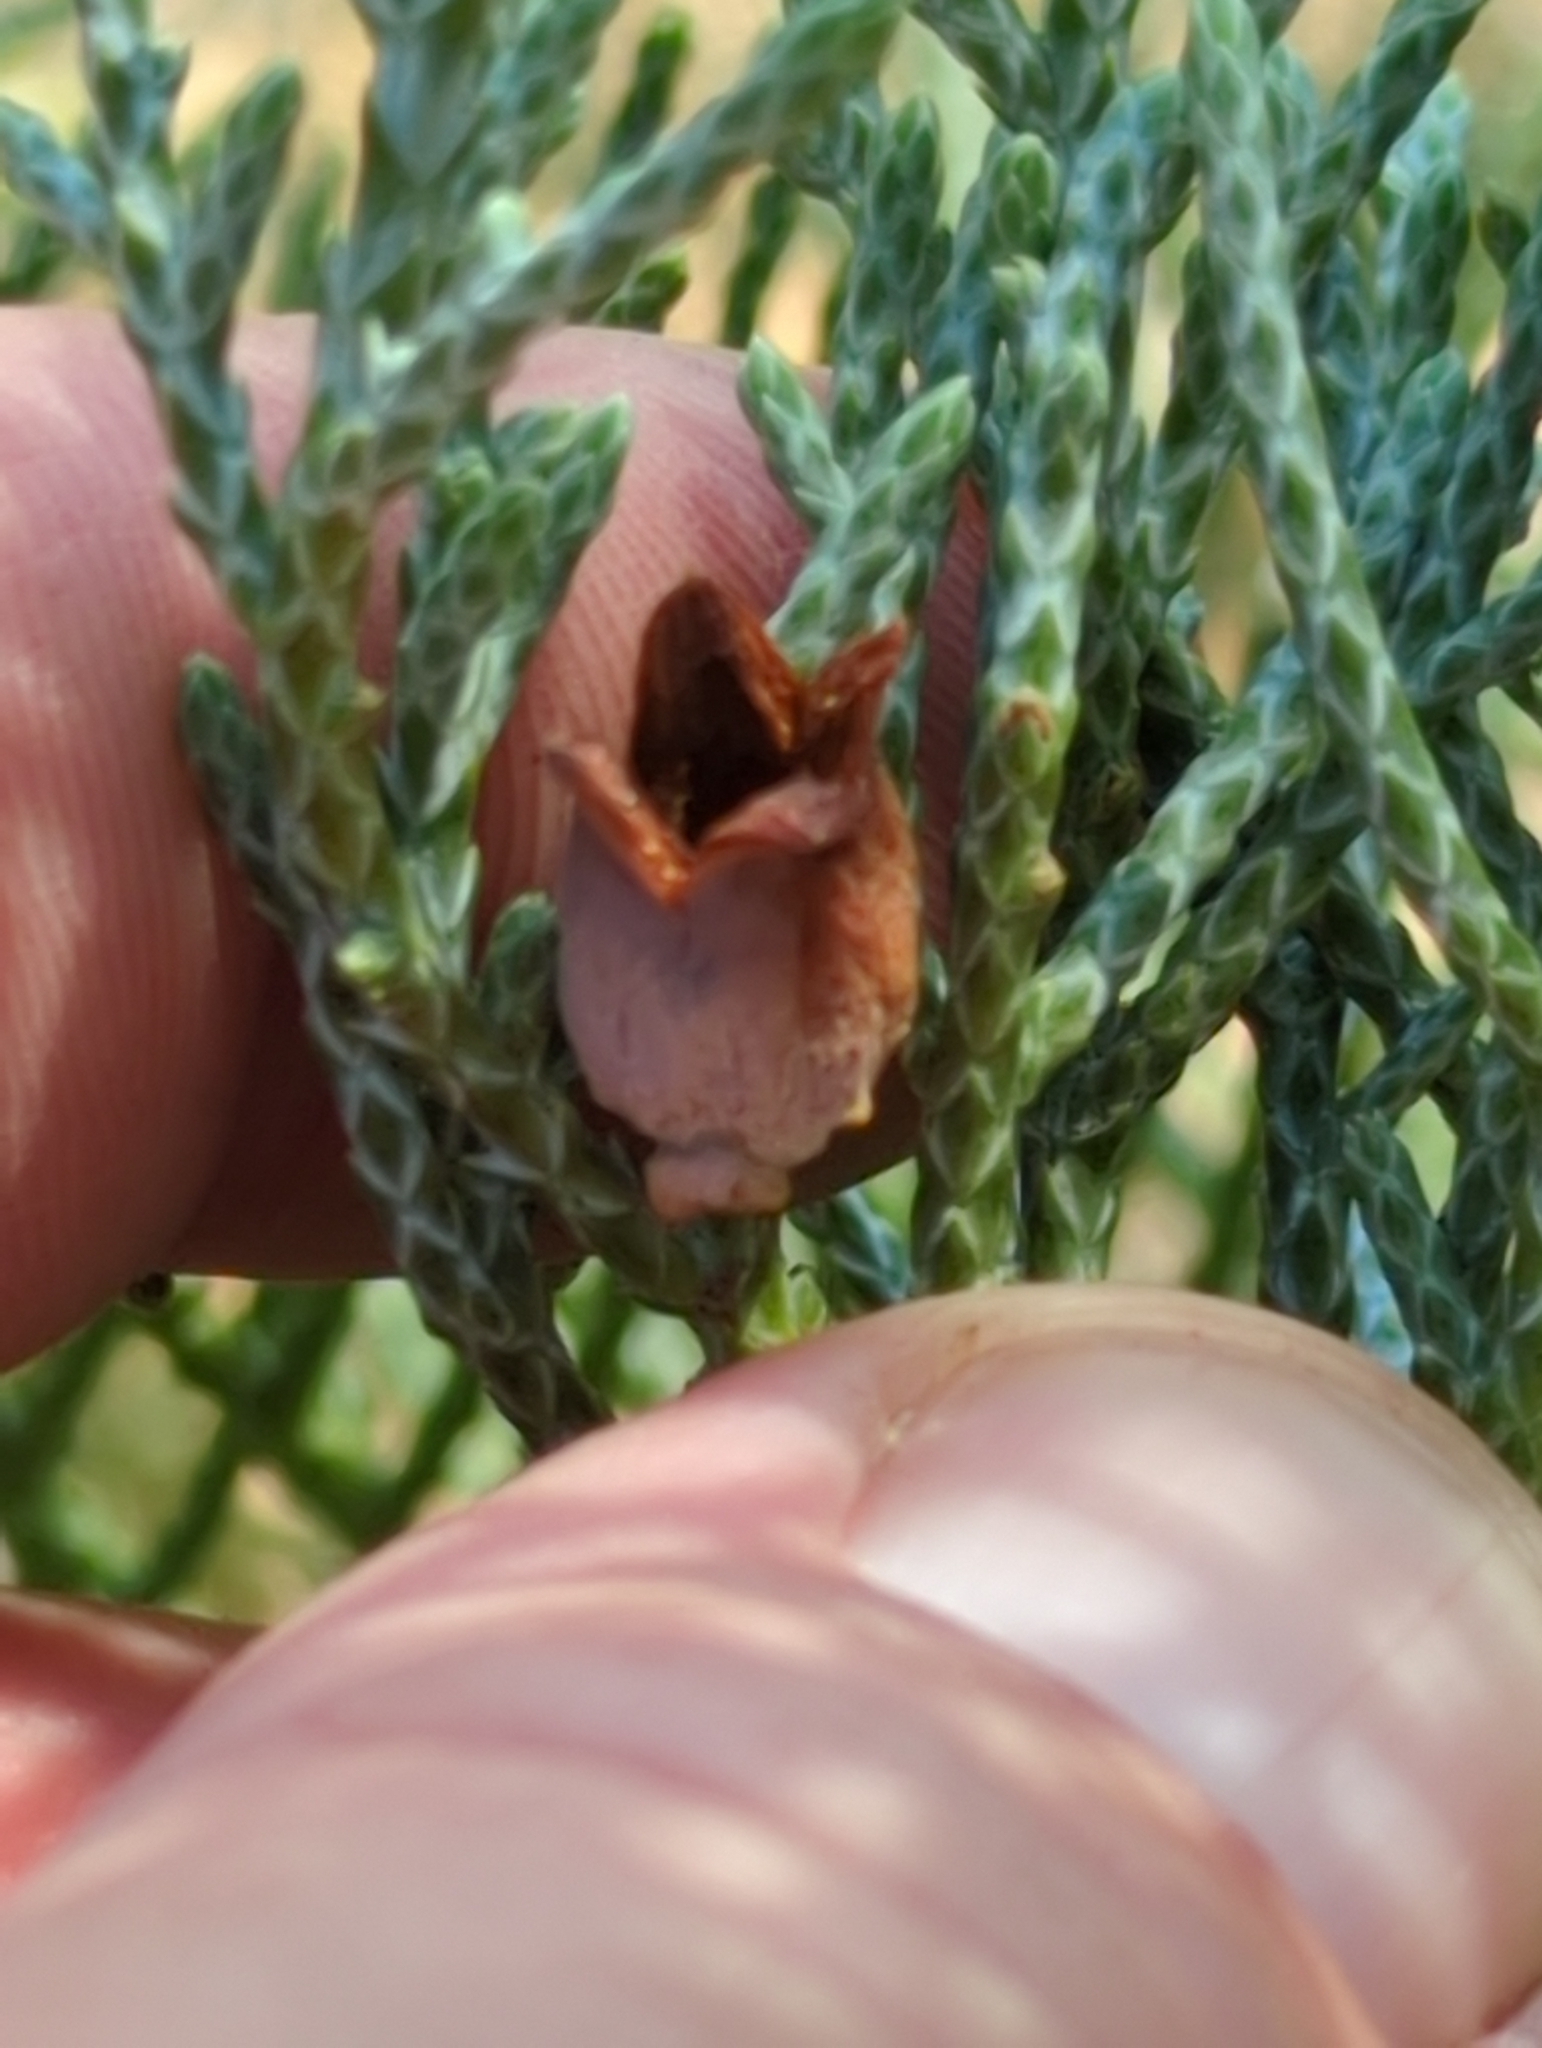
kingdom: Animalia
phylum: Arthropoda
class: Insecta
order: Diptera
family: Cecidomyiidae
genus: Walshomyia
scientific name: Walshomyia juniperina
